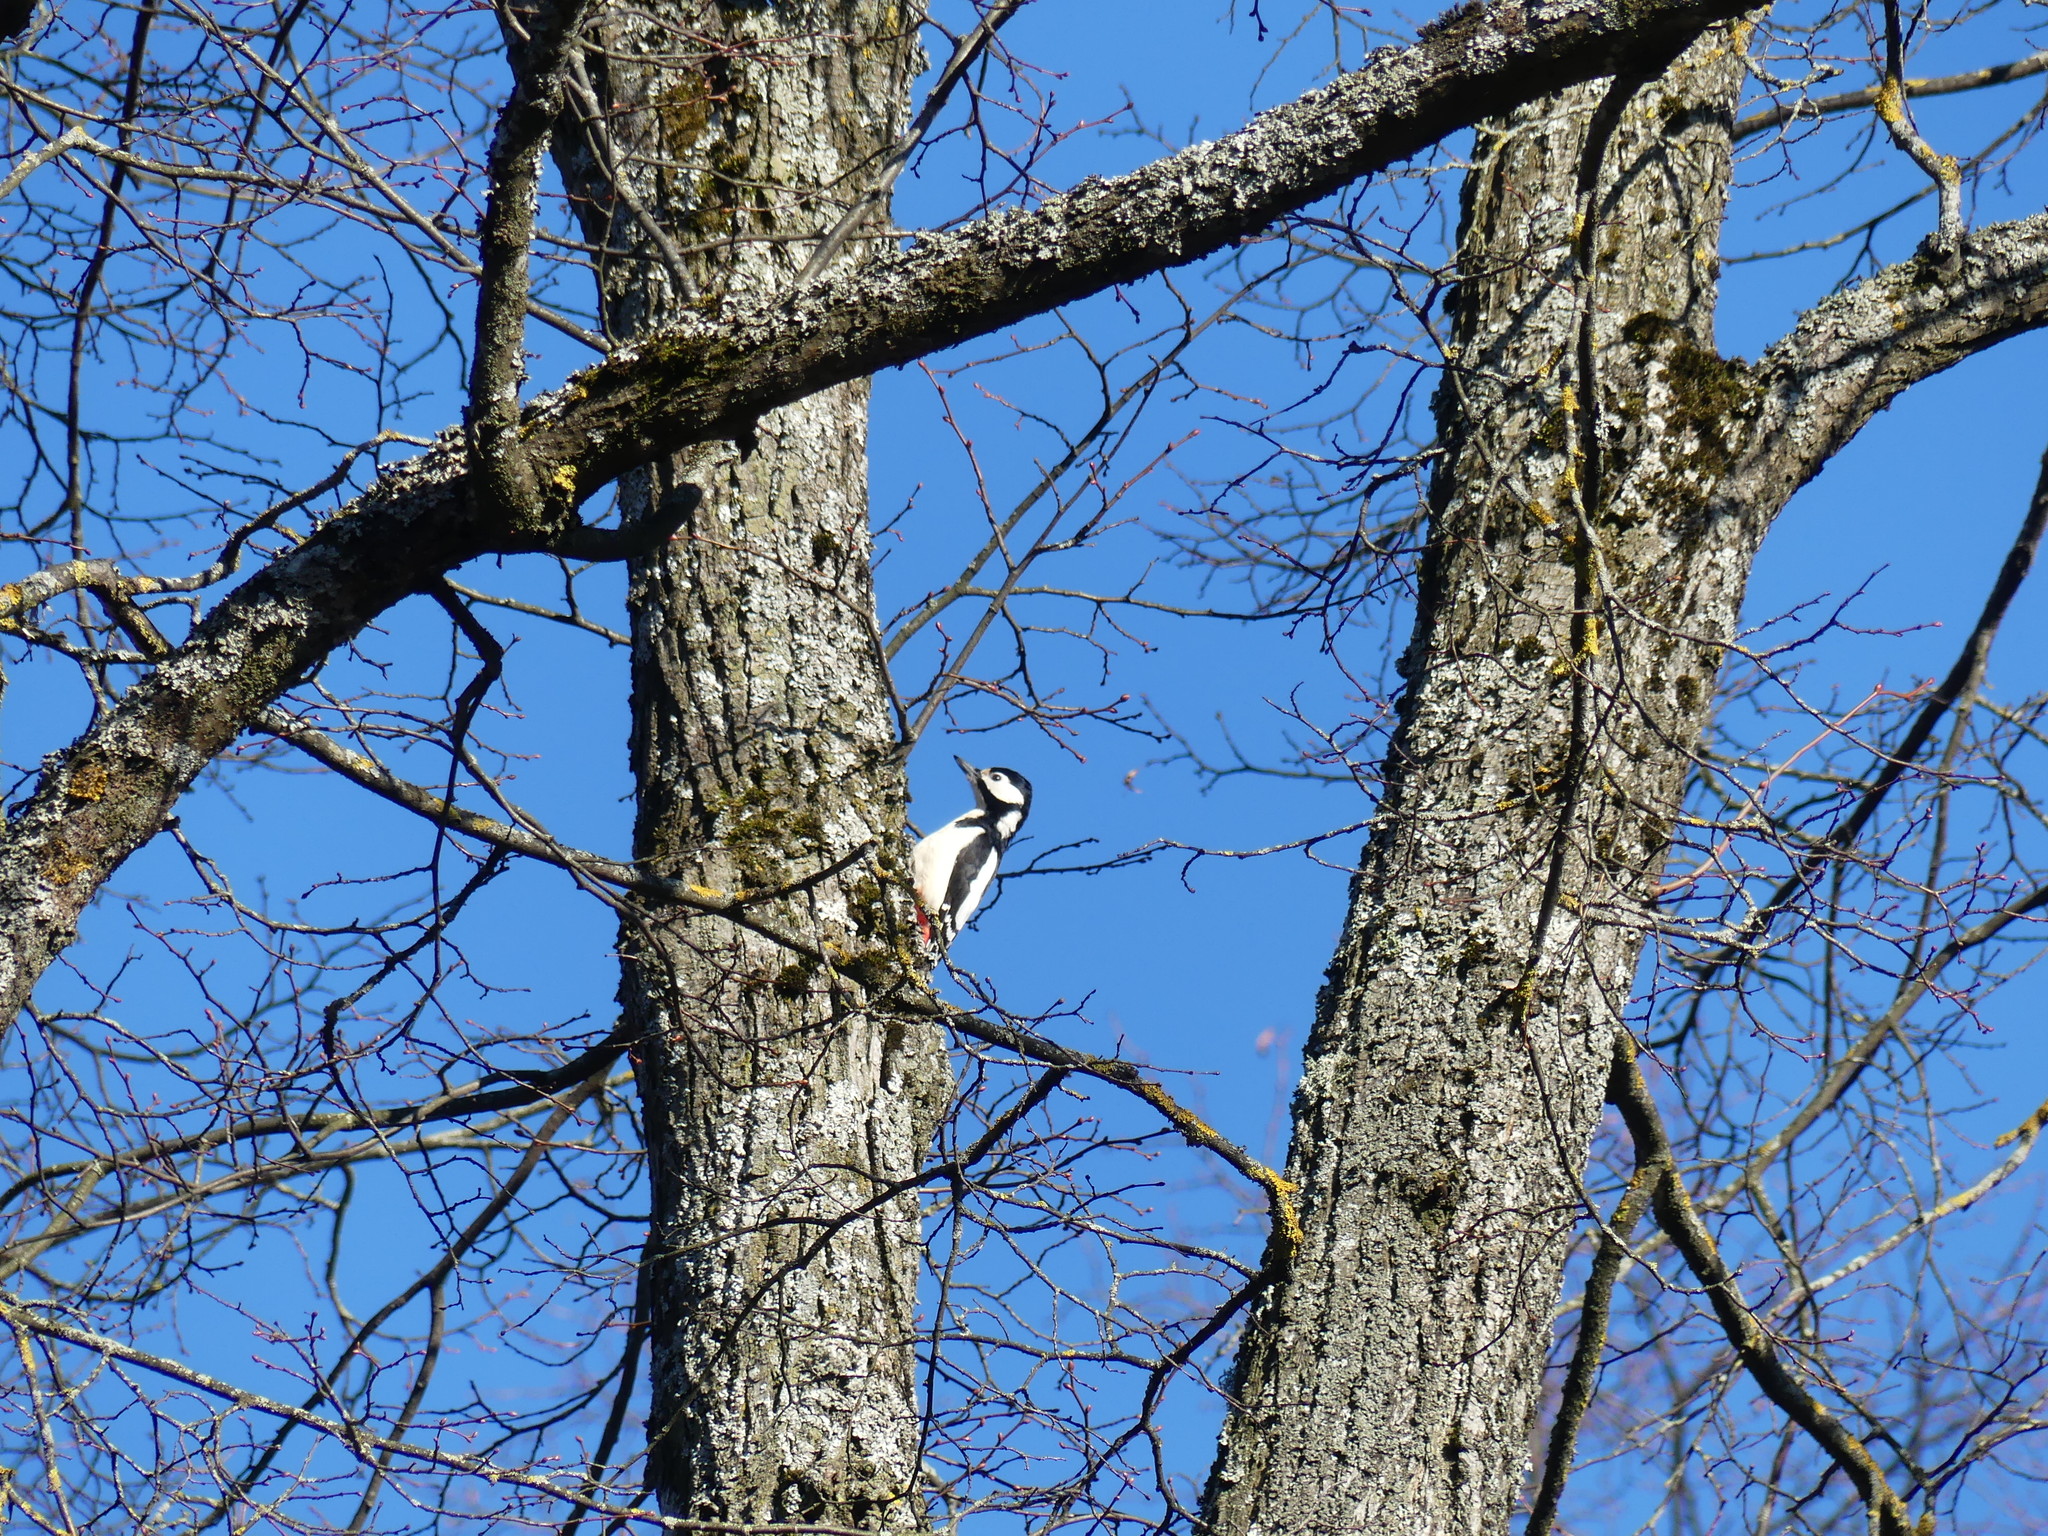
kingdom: Animalia
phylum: Chordata
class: Aves
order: Piciformes
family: Picidae
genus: Dendrocopos
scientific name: Dendrocopos major
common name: Great spotted woodpecker
